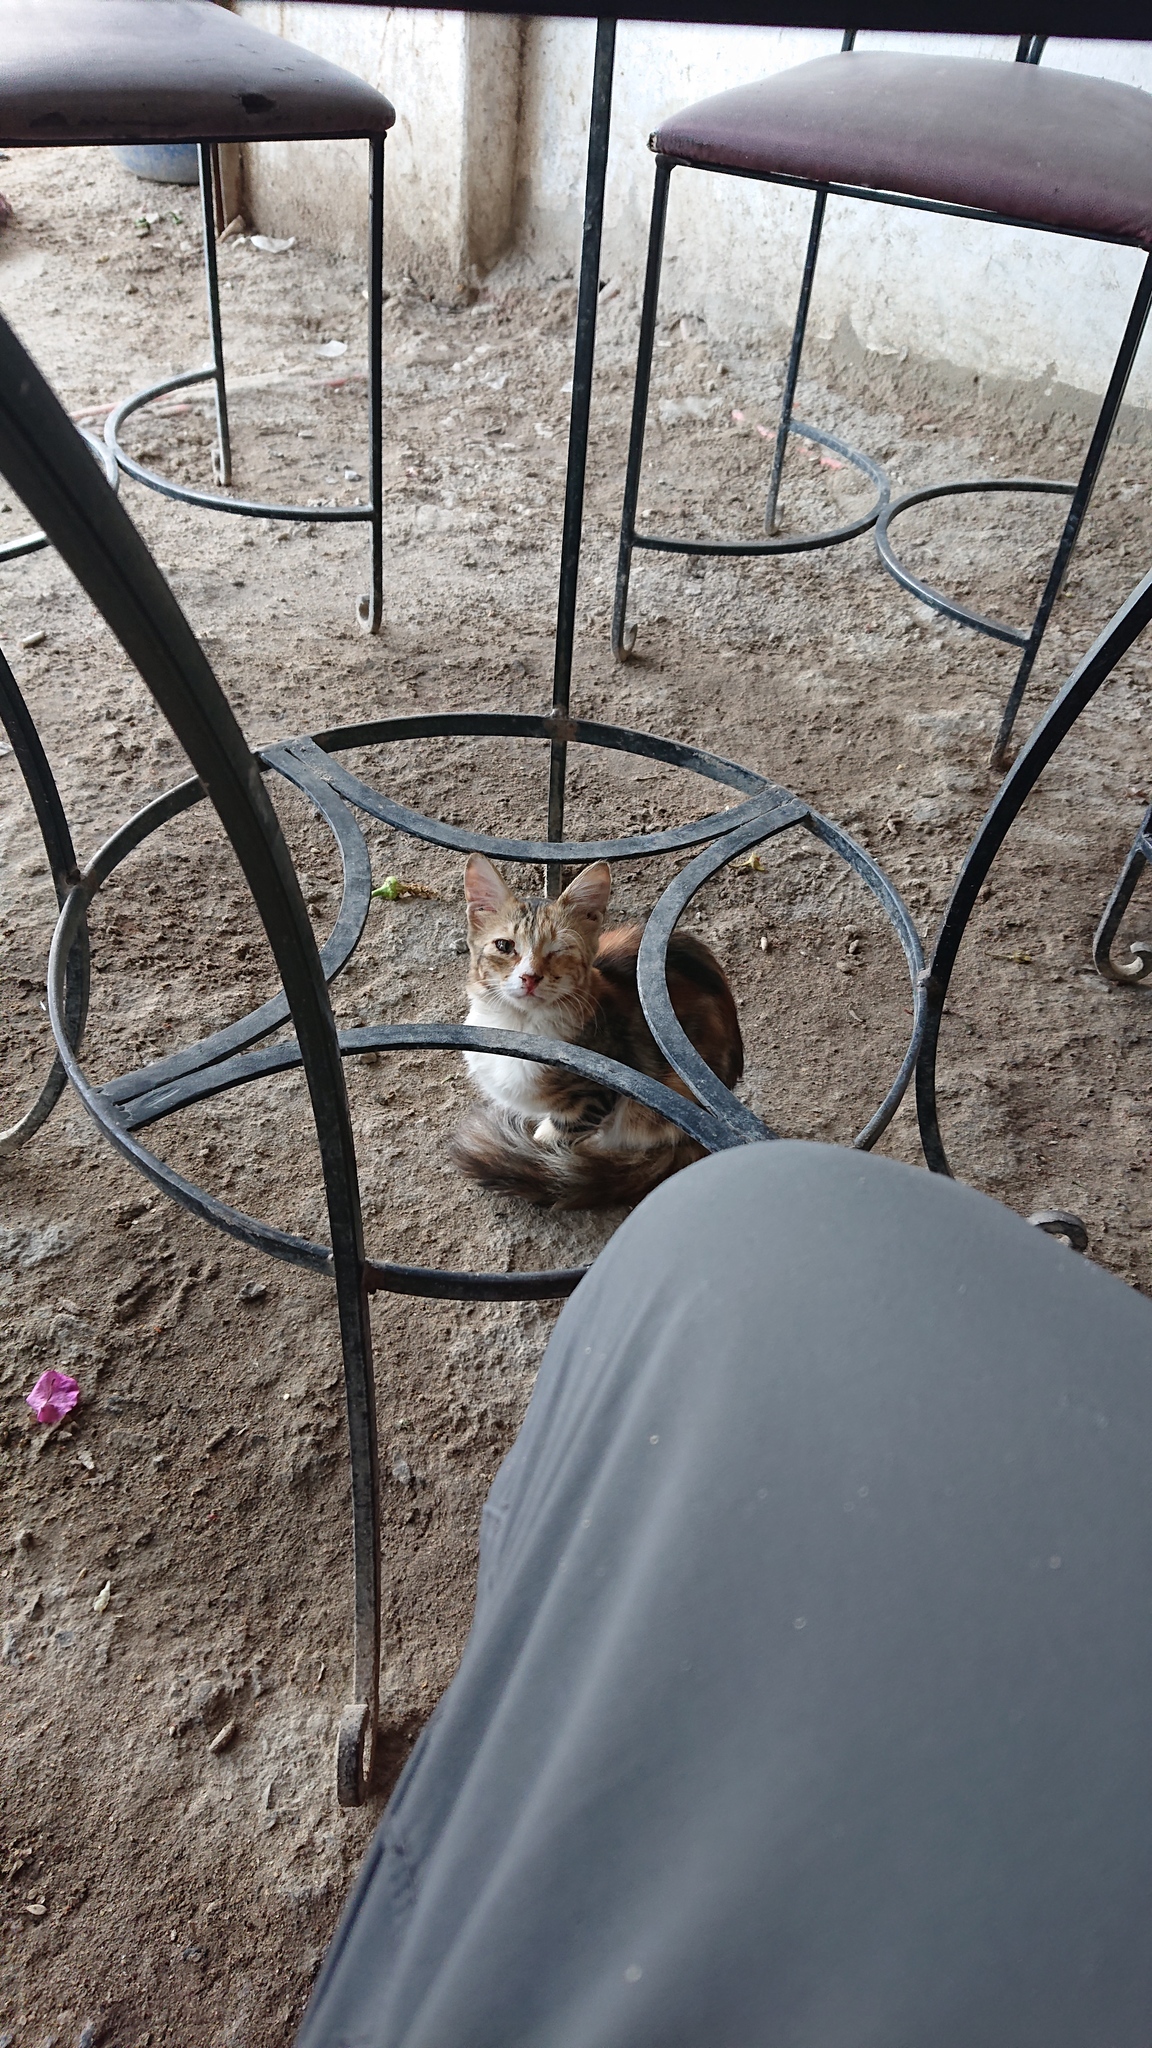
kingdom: Animalia
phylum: Chordata
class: Mammalia
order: Carnivora
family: Felidae
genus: Felis
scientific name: Felis catus
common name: Domestic cat
